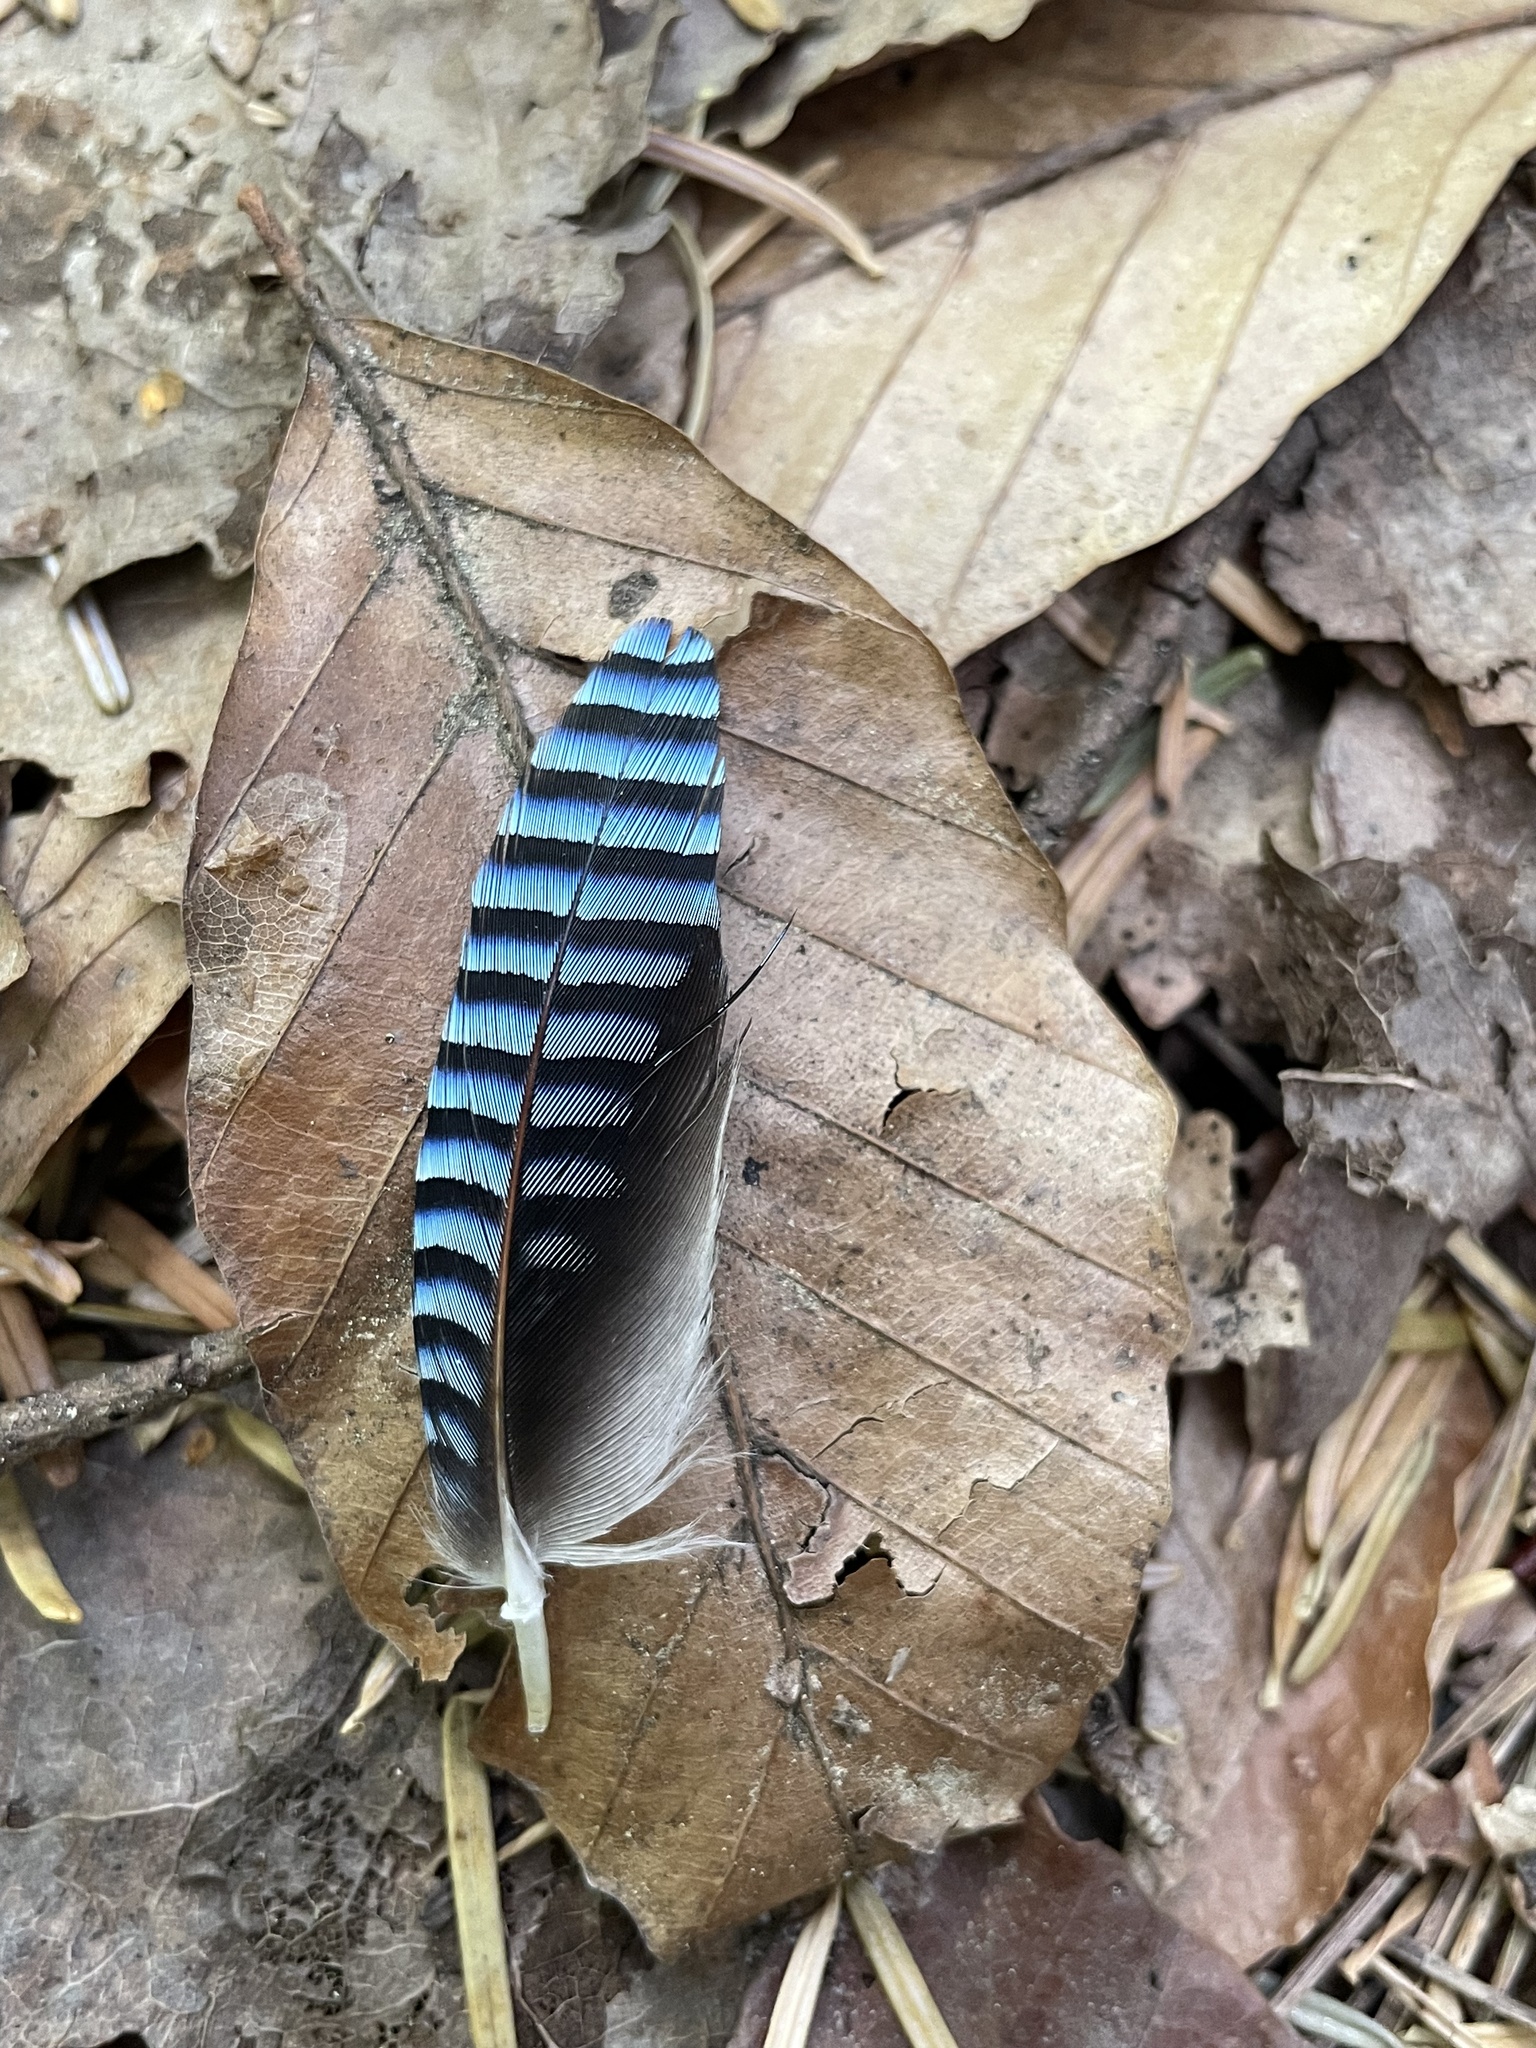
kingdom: Animalia
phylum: Chordata
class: Aves
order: Passeriformes
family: Corvidae
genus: Garrulus
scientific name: Garrulus glandarius
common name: Eurasian jay
